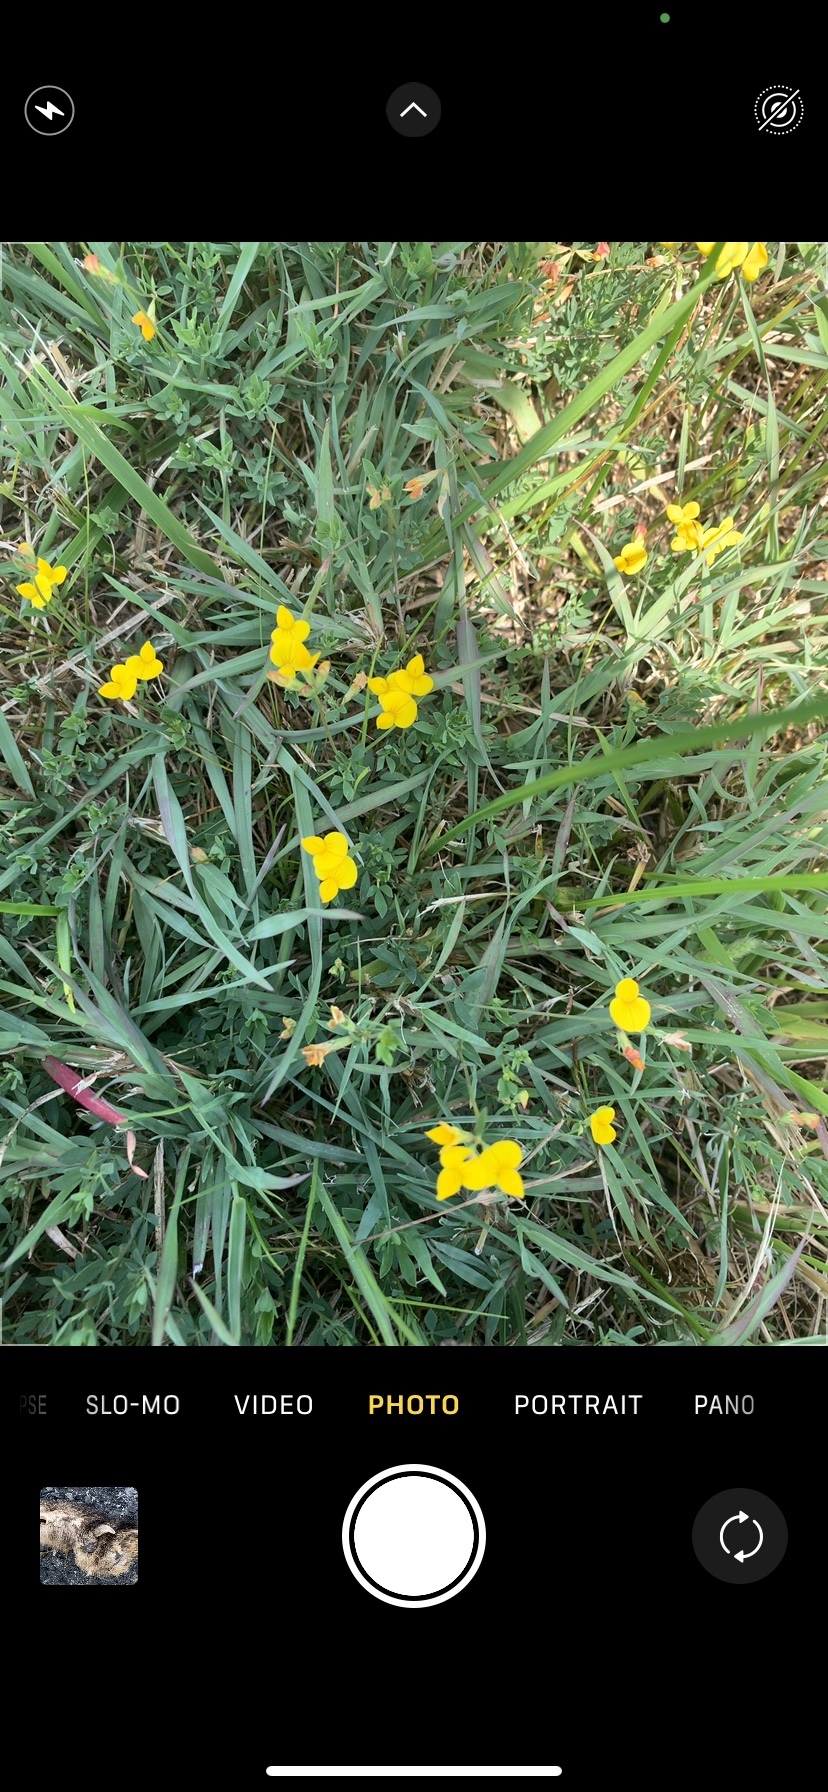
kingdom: Plantae
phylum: Tracheophyta
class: Magnoliopsida
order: Fabales
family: Fabaceae
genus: Lotus
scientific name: Lotus corniculatus
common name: Common bird's-foot-trefoil
